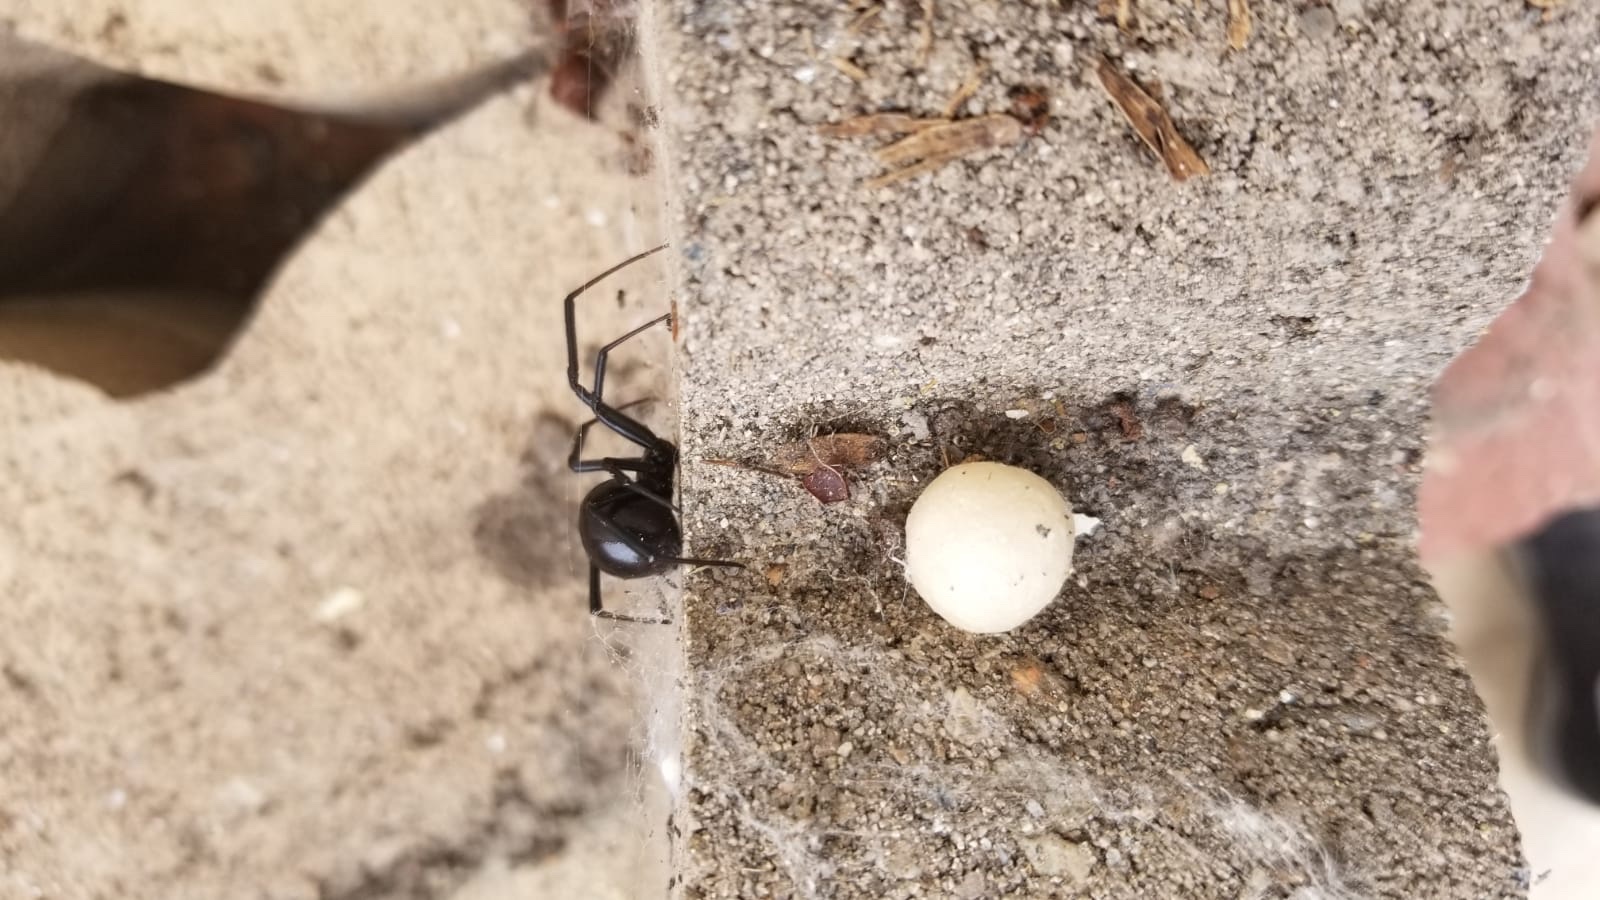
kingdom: Animalia
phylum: Arthropoda
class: Arachnida
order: Araneae
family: Theridiidae
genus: Latrodectus
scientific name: Latrodectus hesperus
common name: Western black widow
